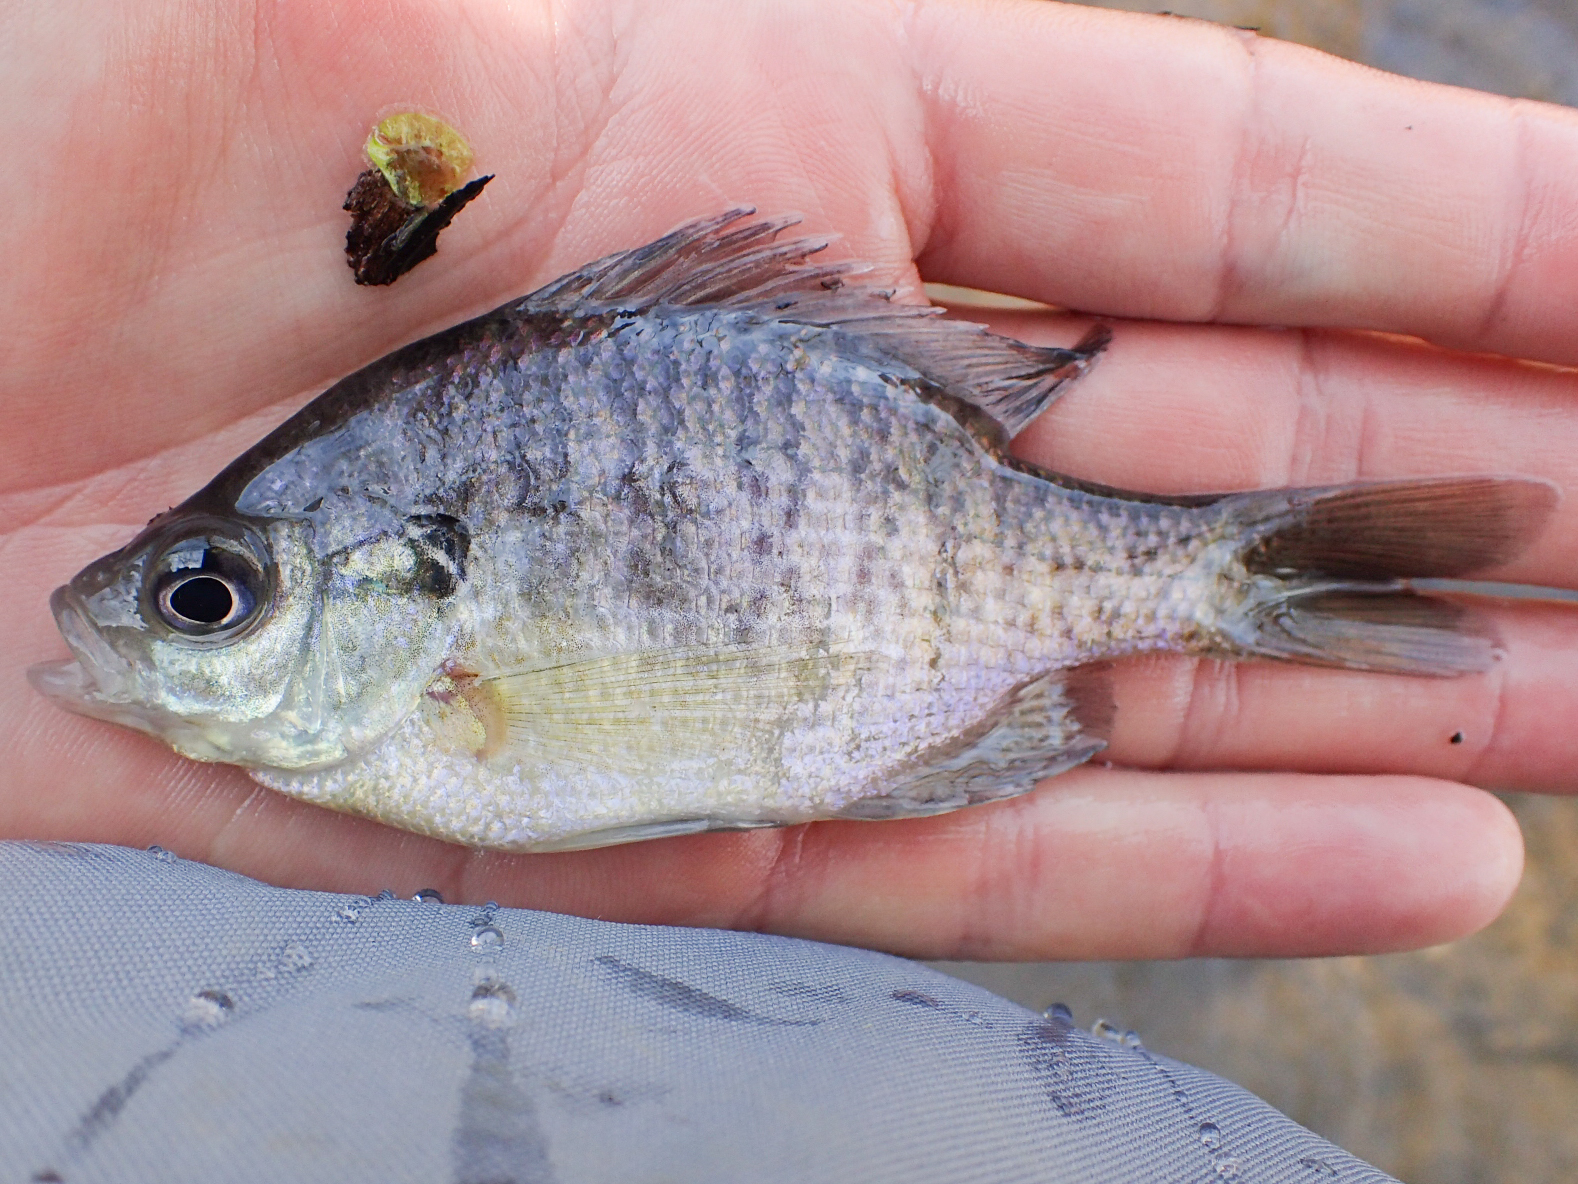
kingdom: Animalia
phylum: Chordata
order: Perciformes
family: Centrarchidae
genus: Lepomis
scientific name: Lepomis macrochirus
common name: Bluegill
